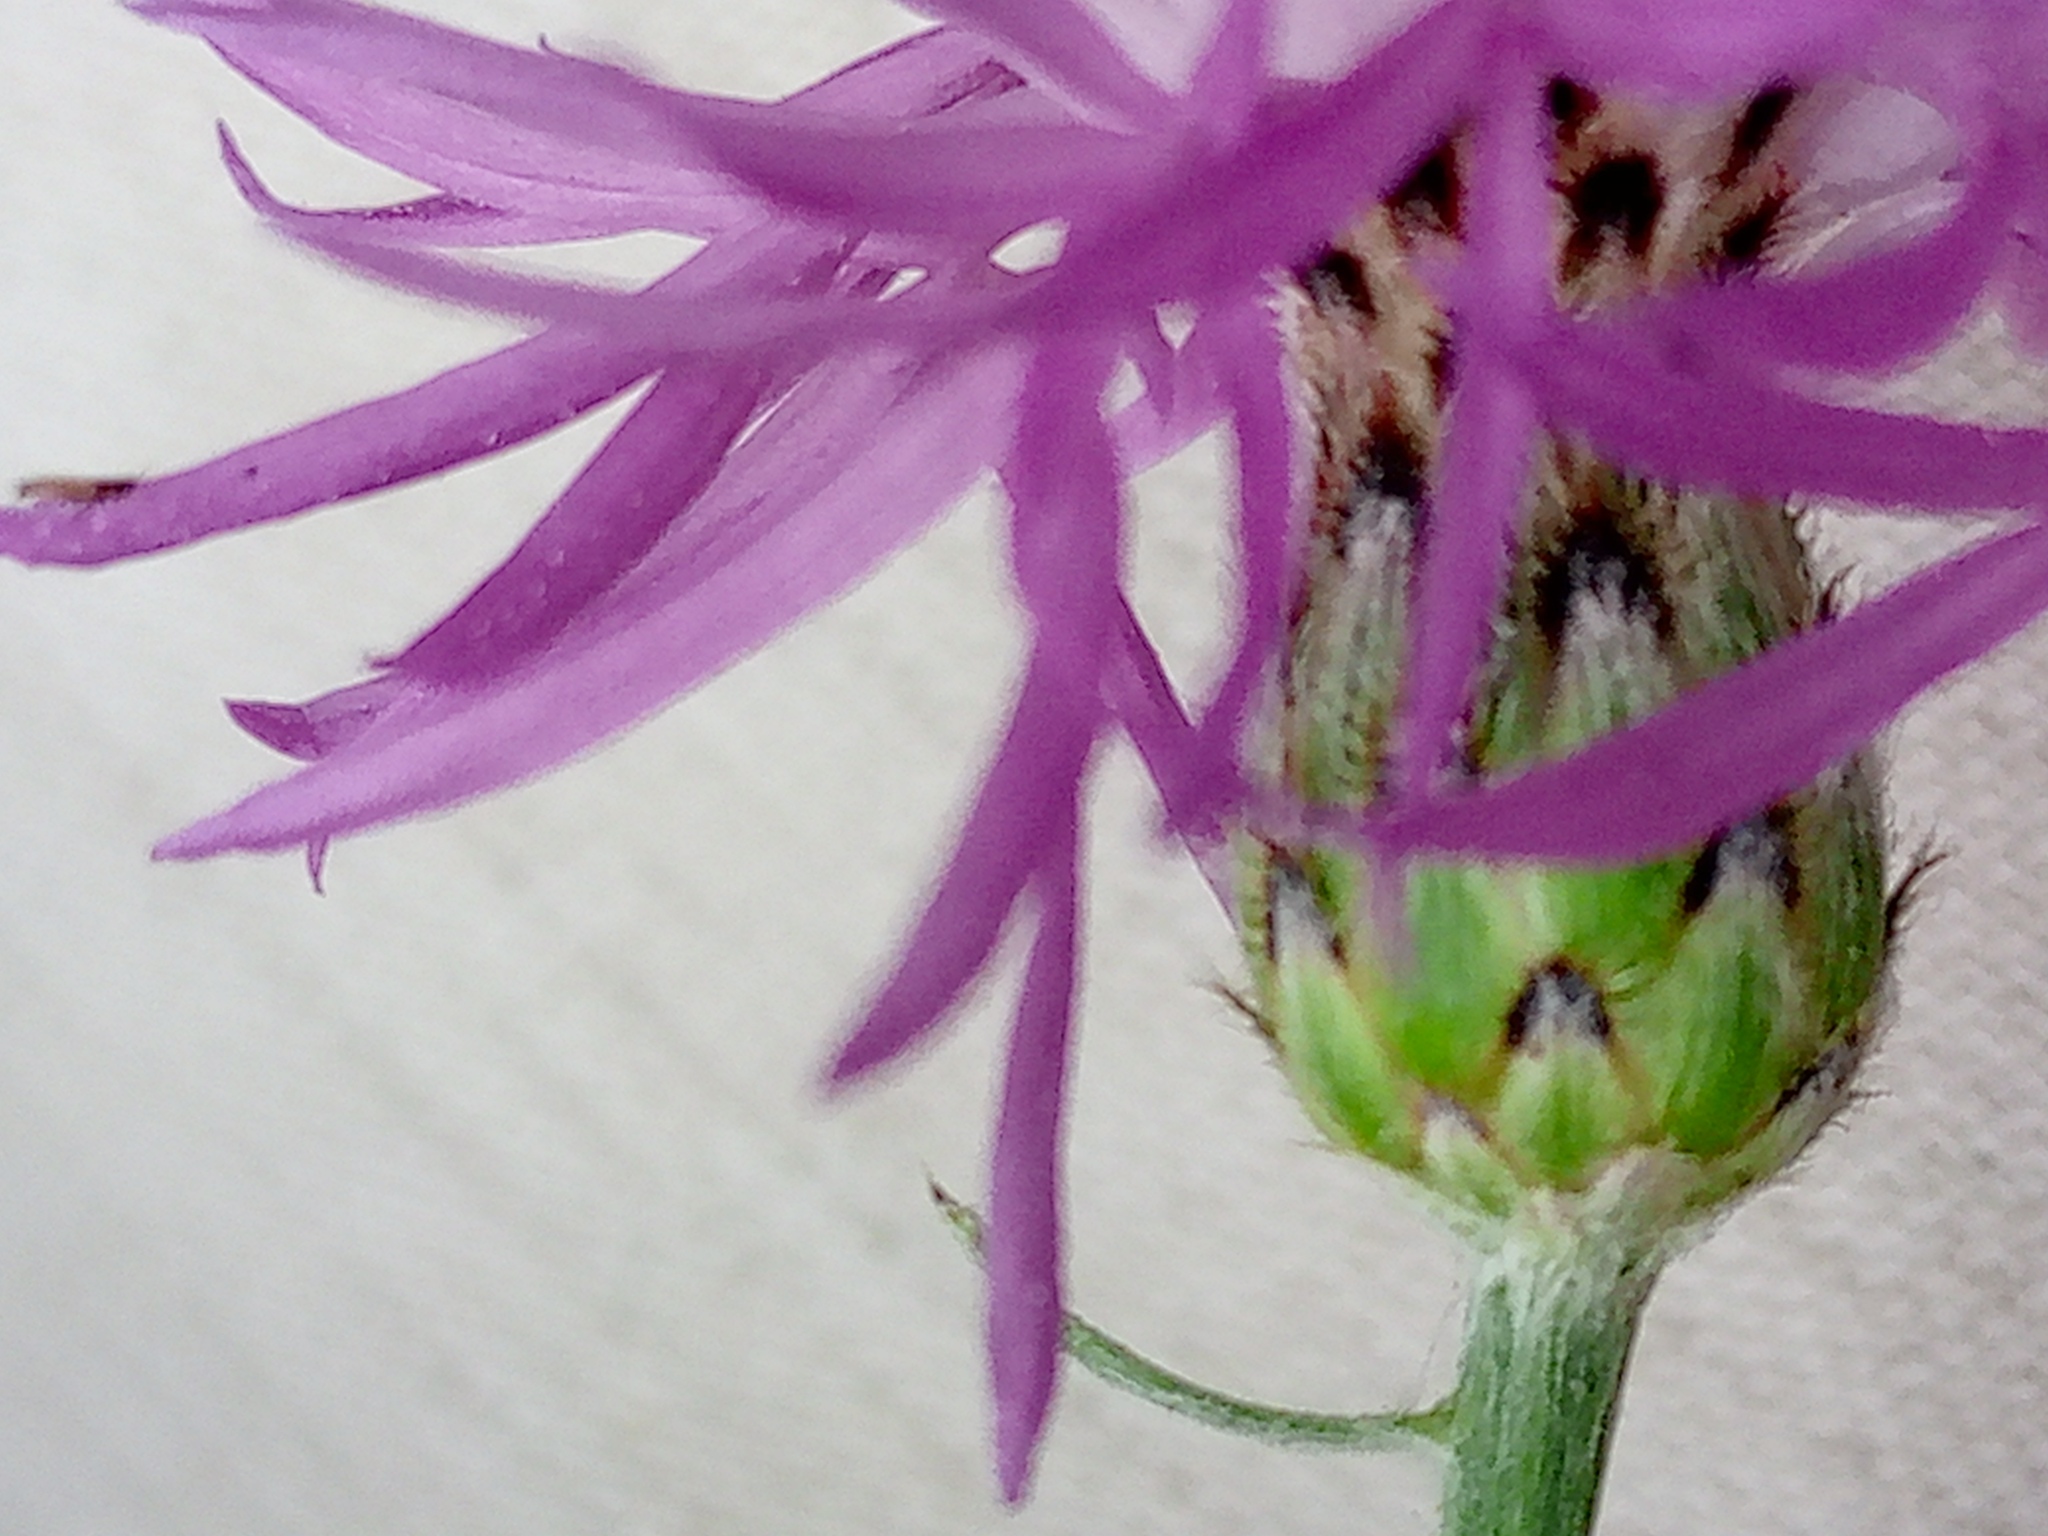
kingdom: Plantae
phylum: Tracheophyta
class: Magnoliopsida
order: Asterales
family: Asteraceae
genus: Centaurea
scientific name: Centaurea stoebe
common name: Spotted knapweed
